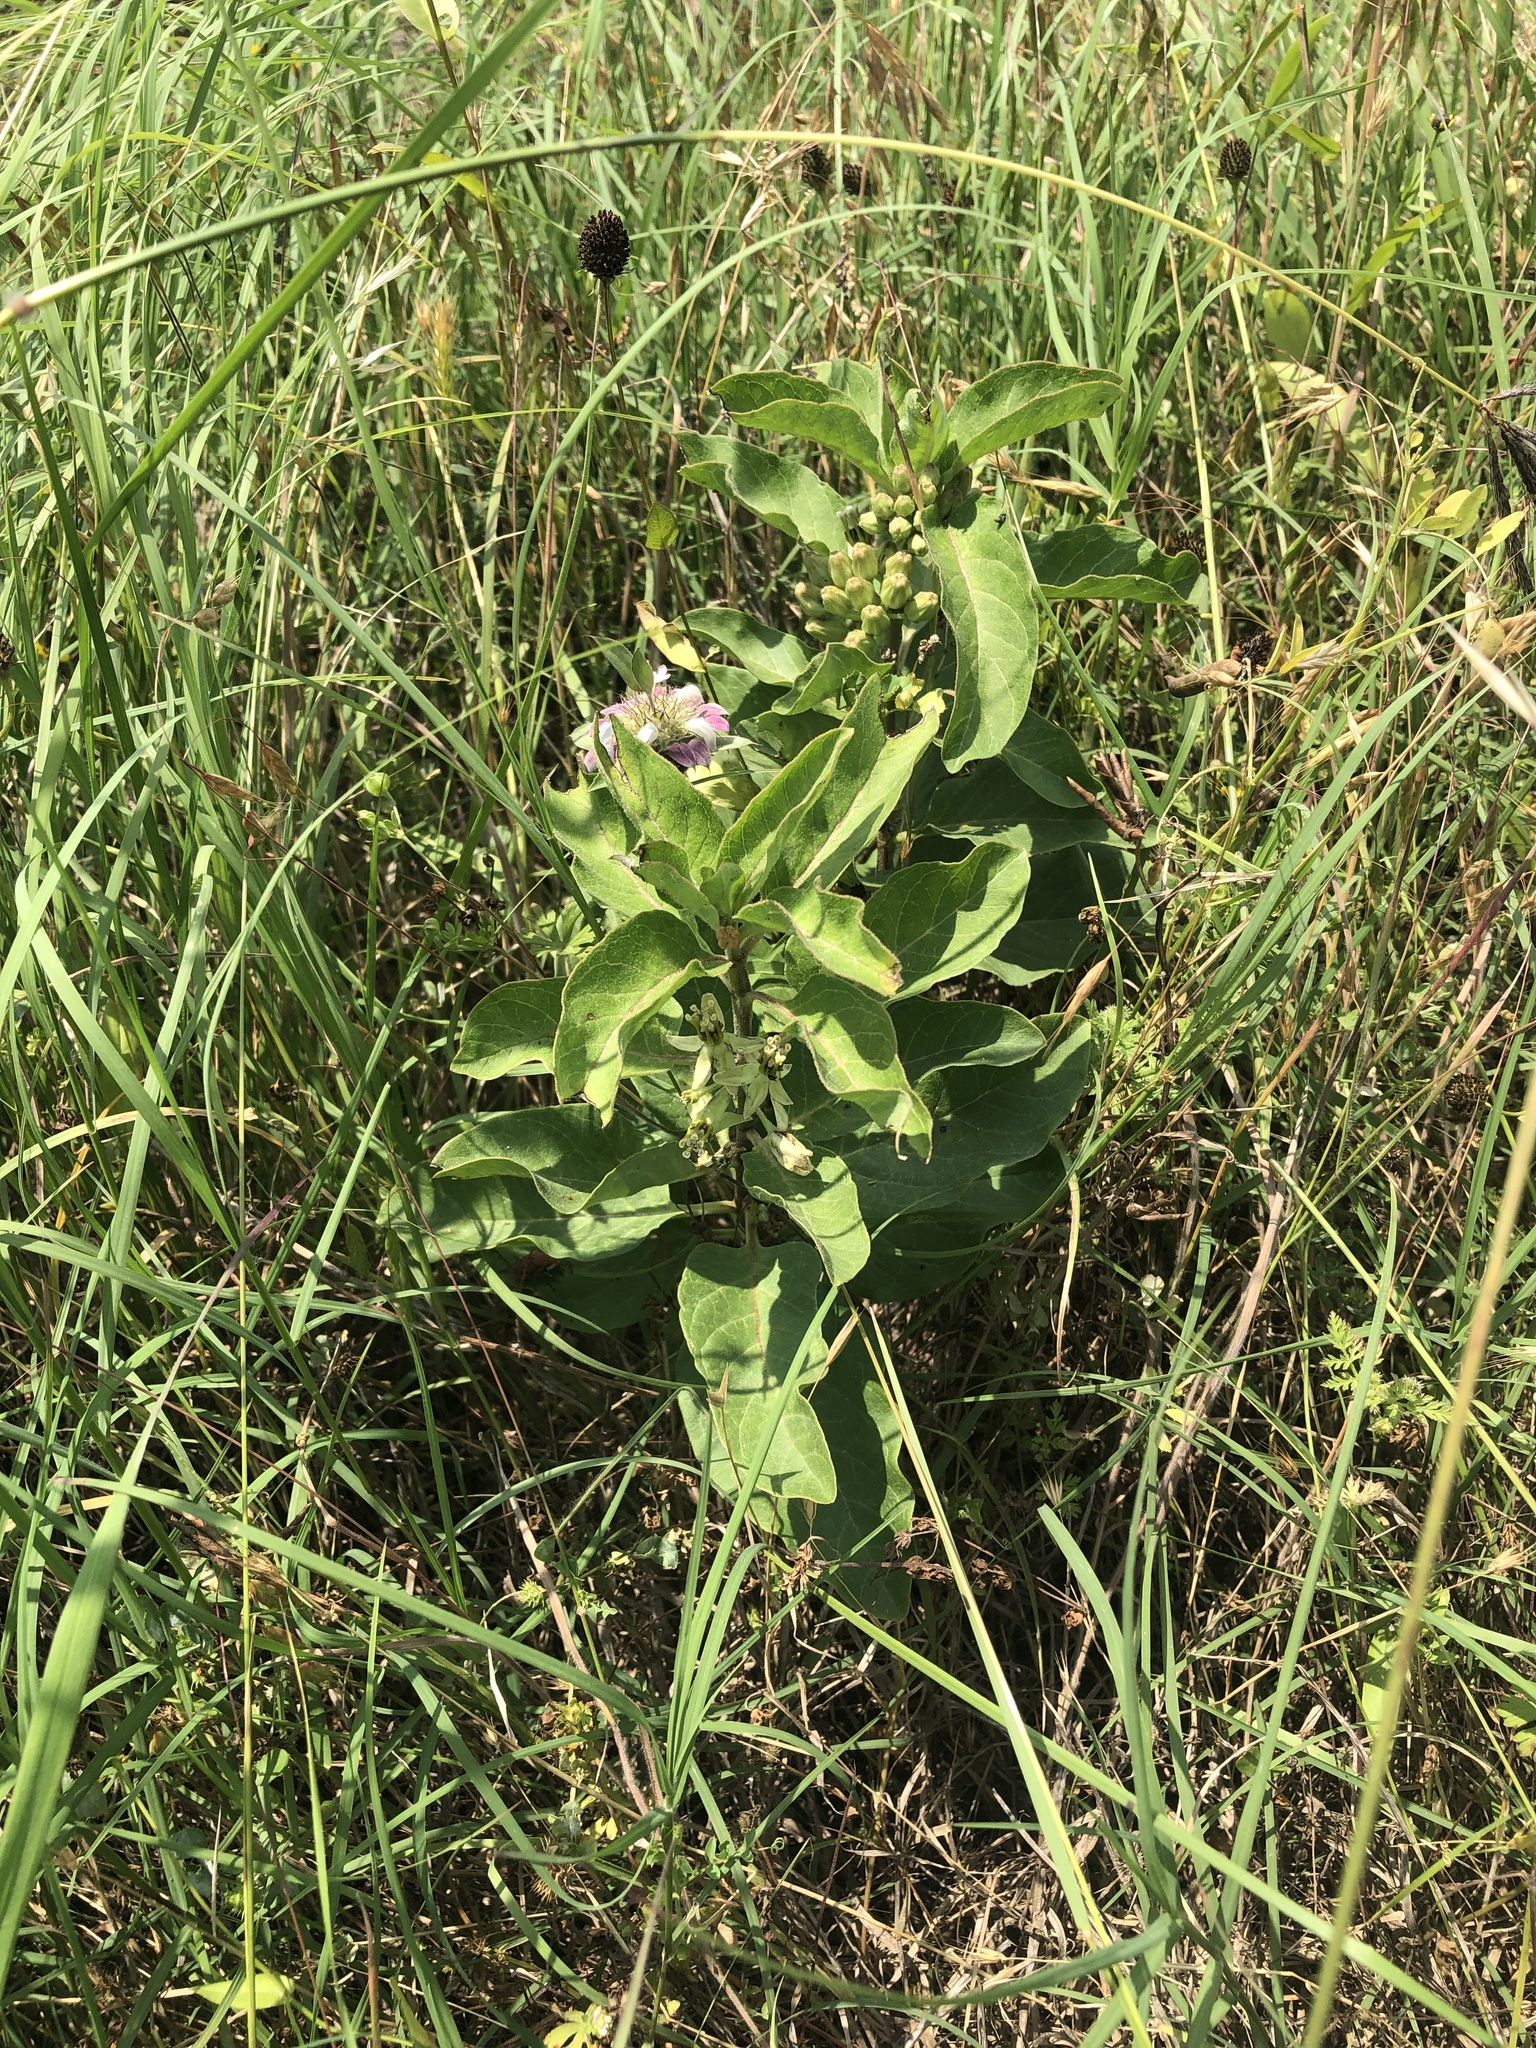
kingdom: Plantae
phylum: Tracheophyta
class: Magnoliopsida
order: Gentianales
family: Apocynaceae
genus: Asclepias
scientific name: Asclepias oenotheroides
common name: Zizotes milkweed
